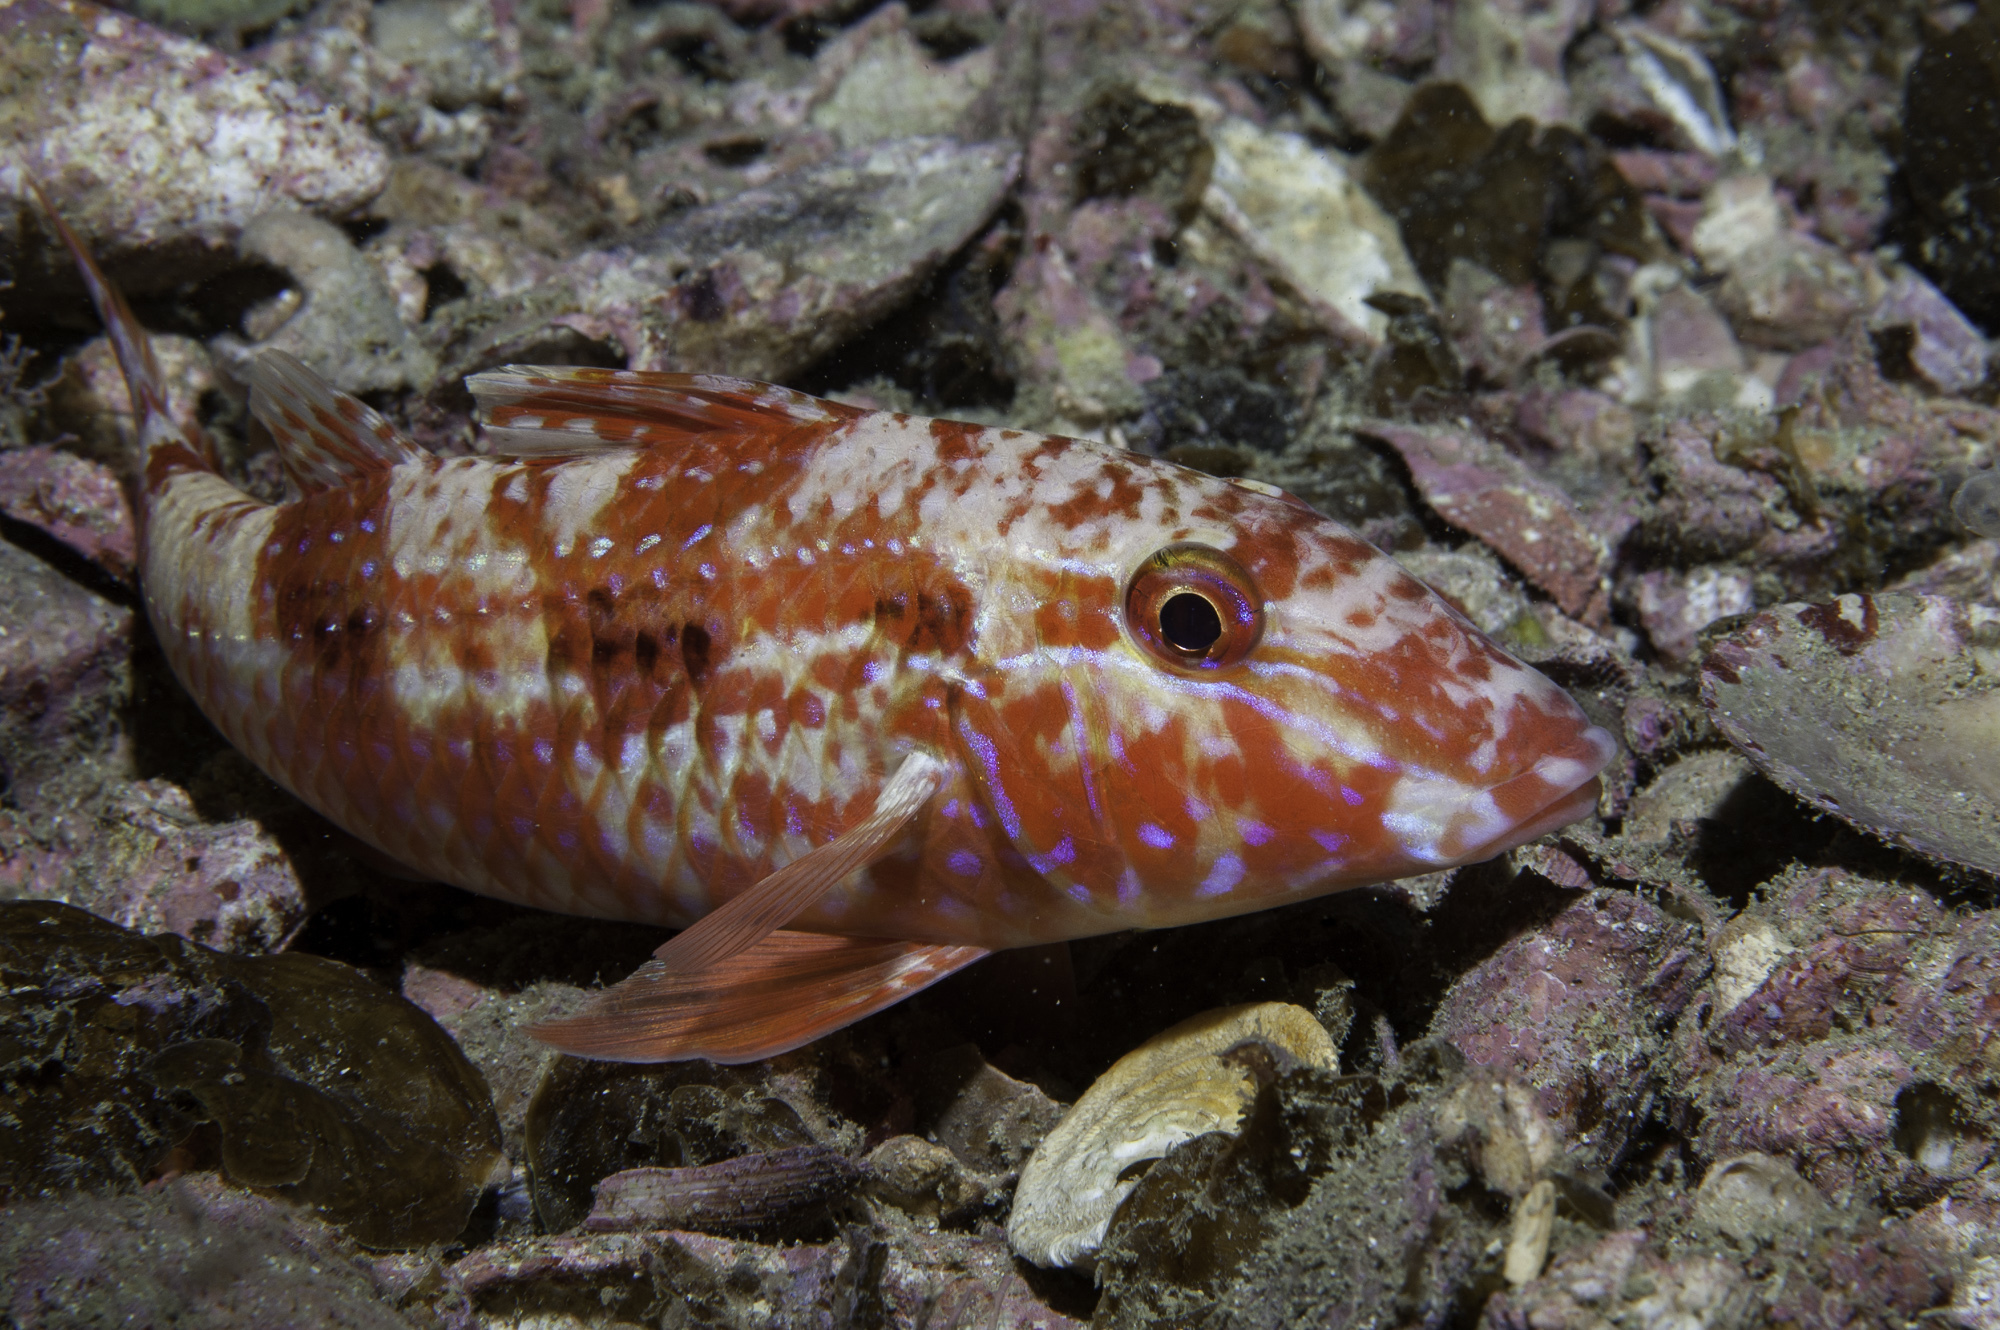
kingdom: Animalia
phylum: Chordata
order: Perciformes
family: Mullidae
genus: Pseudupeneus
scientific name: Pseudupeneus maculatus
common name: Spotted goatfish
